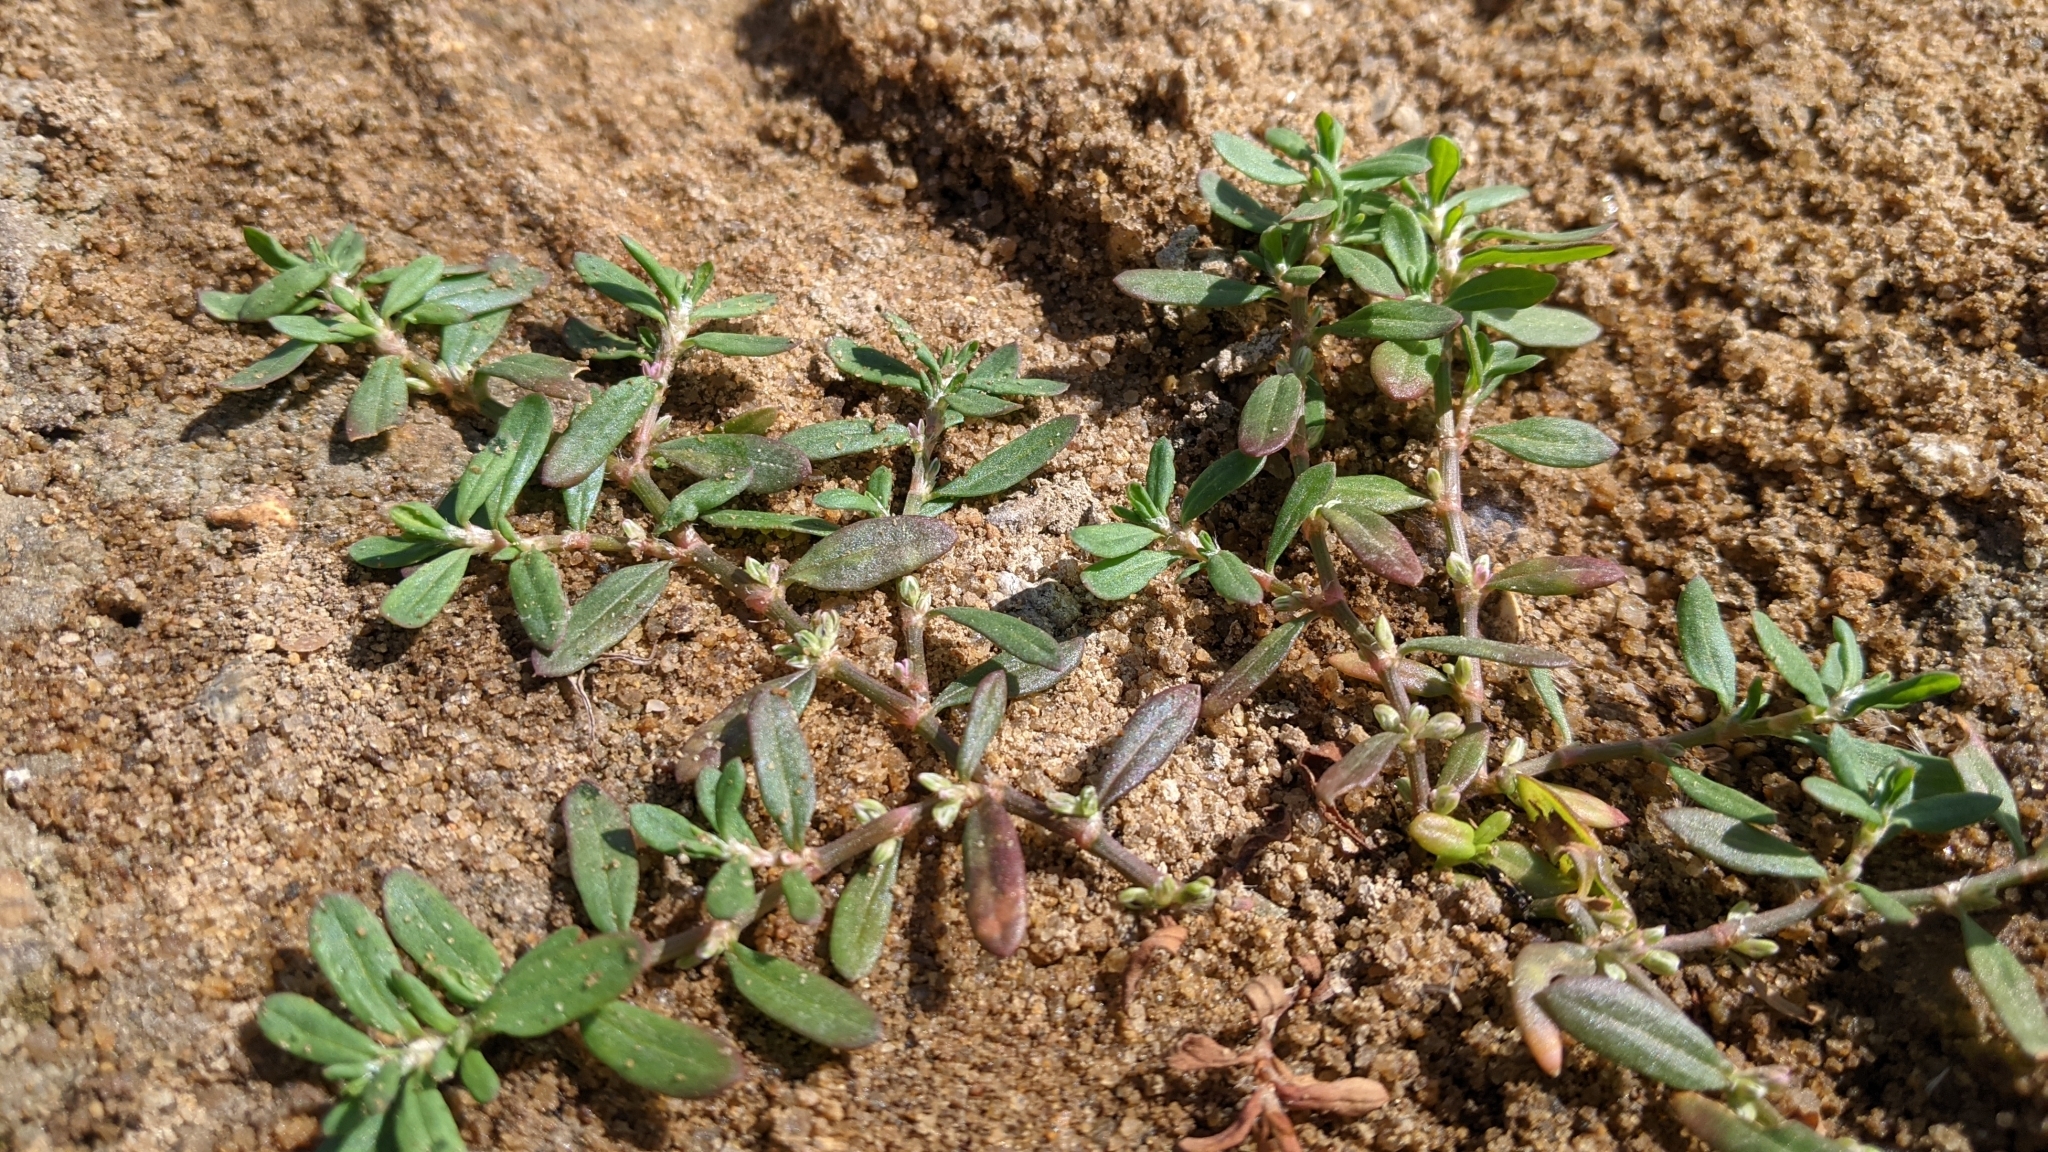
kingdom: Plantae
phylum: Tracheophyta
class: Magnoliopsida
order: Caryophyllales
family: Polygonaceae
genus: Polygonum
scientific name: Polygonum plebeium
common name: Common knotweed
